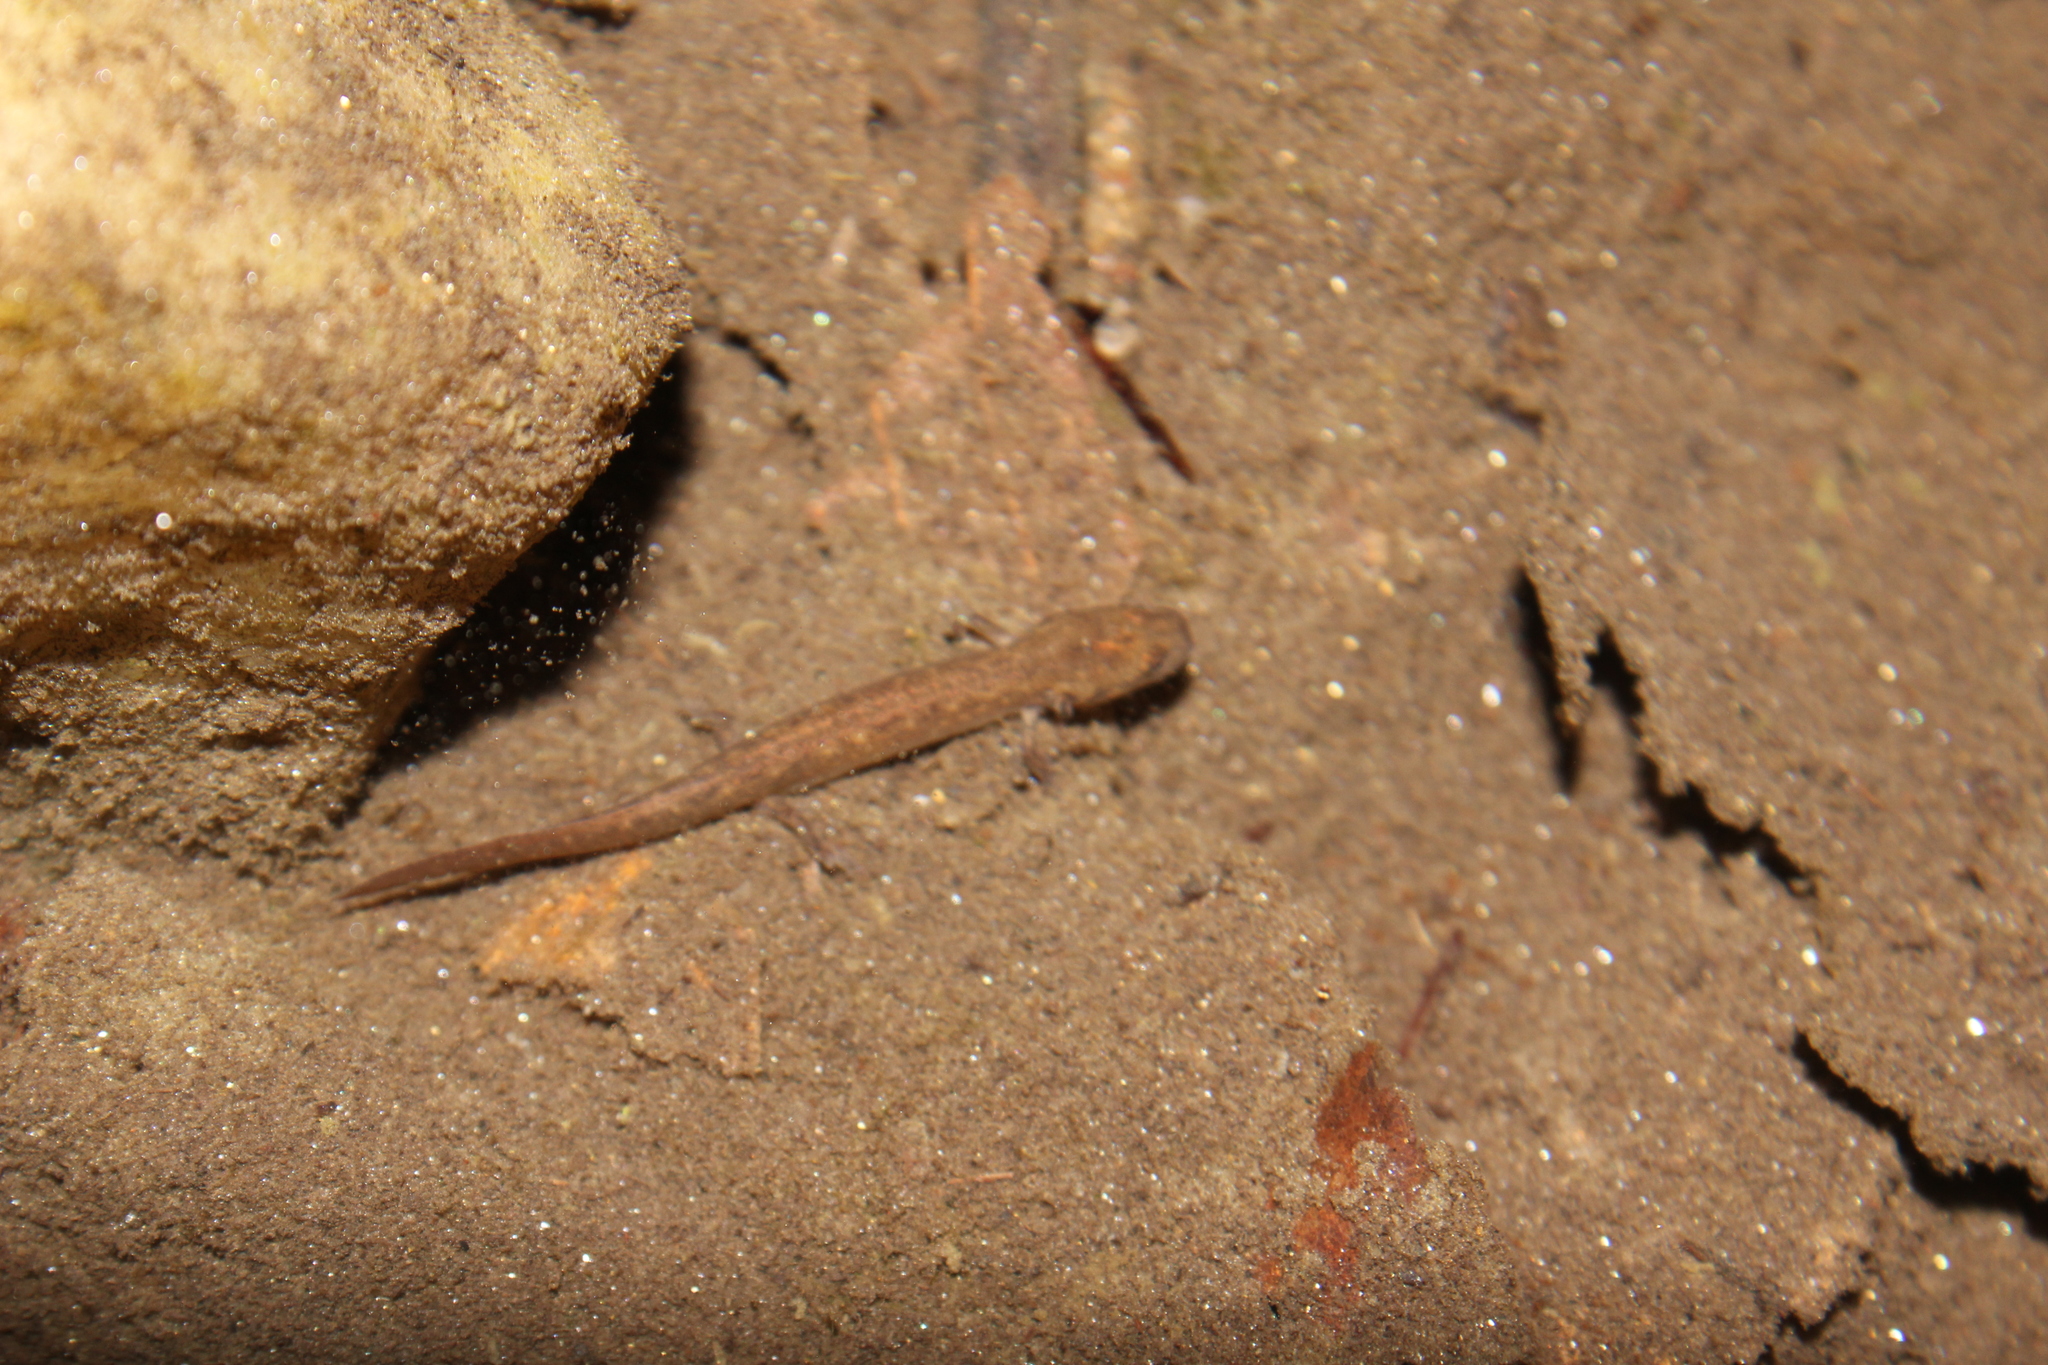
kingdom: Animalia
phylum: Chordata
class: Amphibia
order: Caudata
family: Plethodontidae
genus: Eurycea
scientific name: Eurycea bislineata
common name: Northern two-lined salamander
